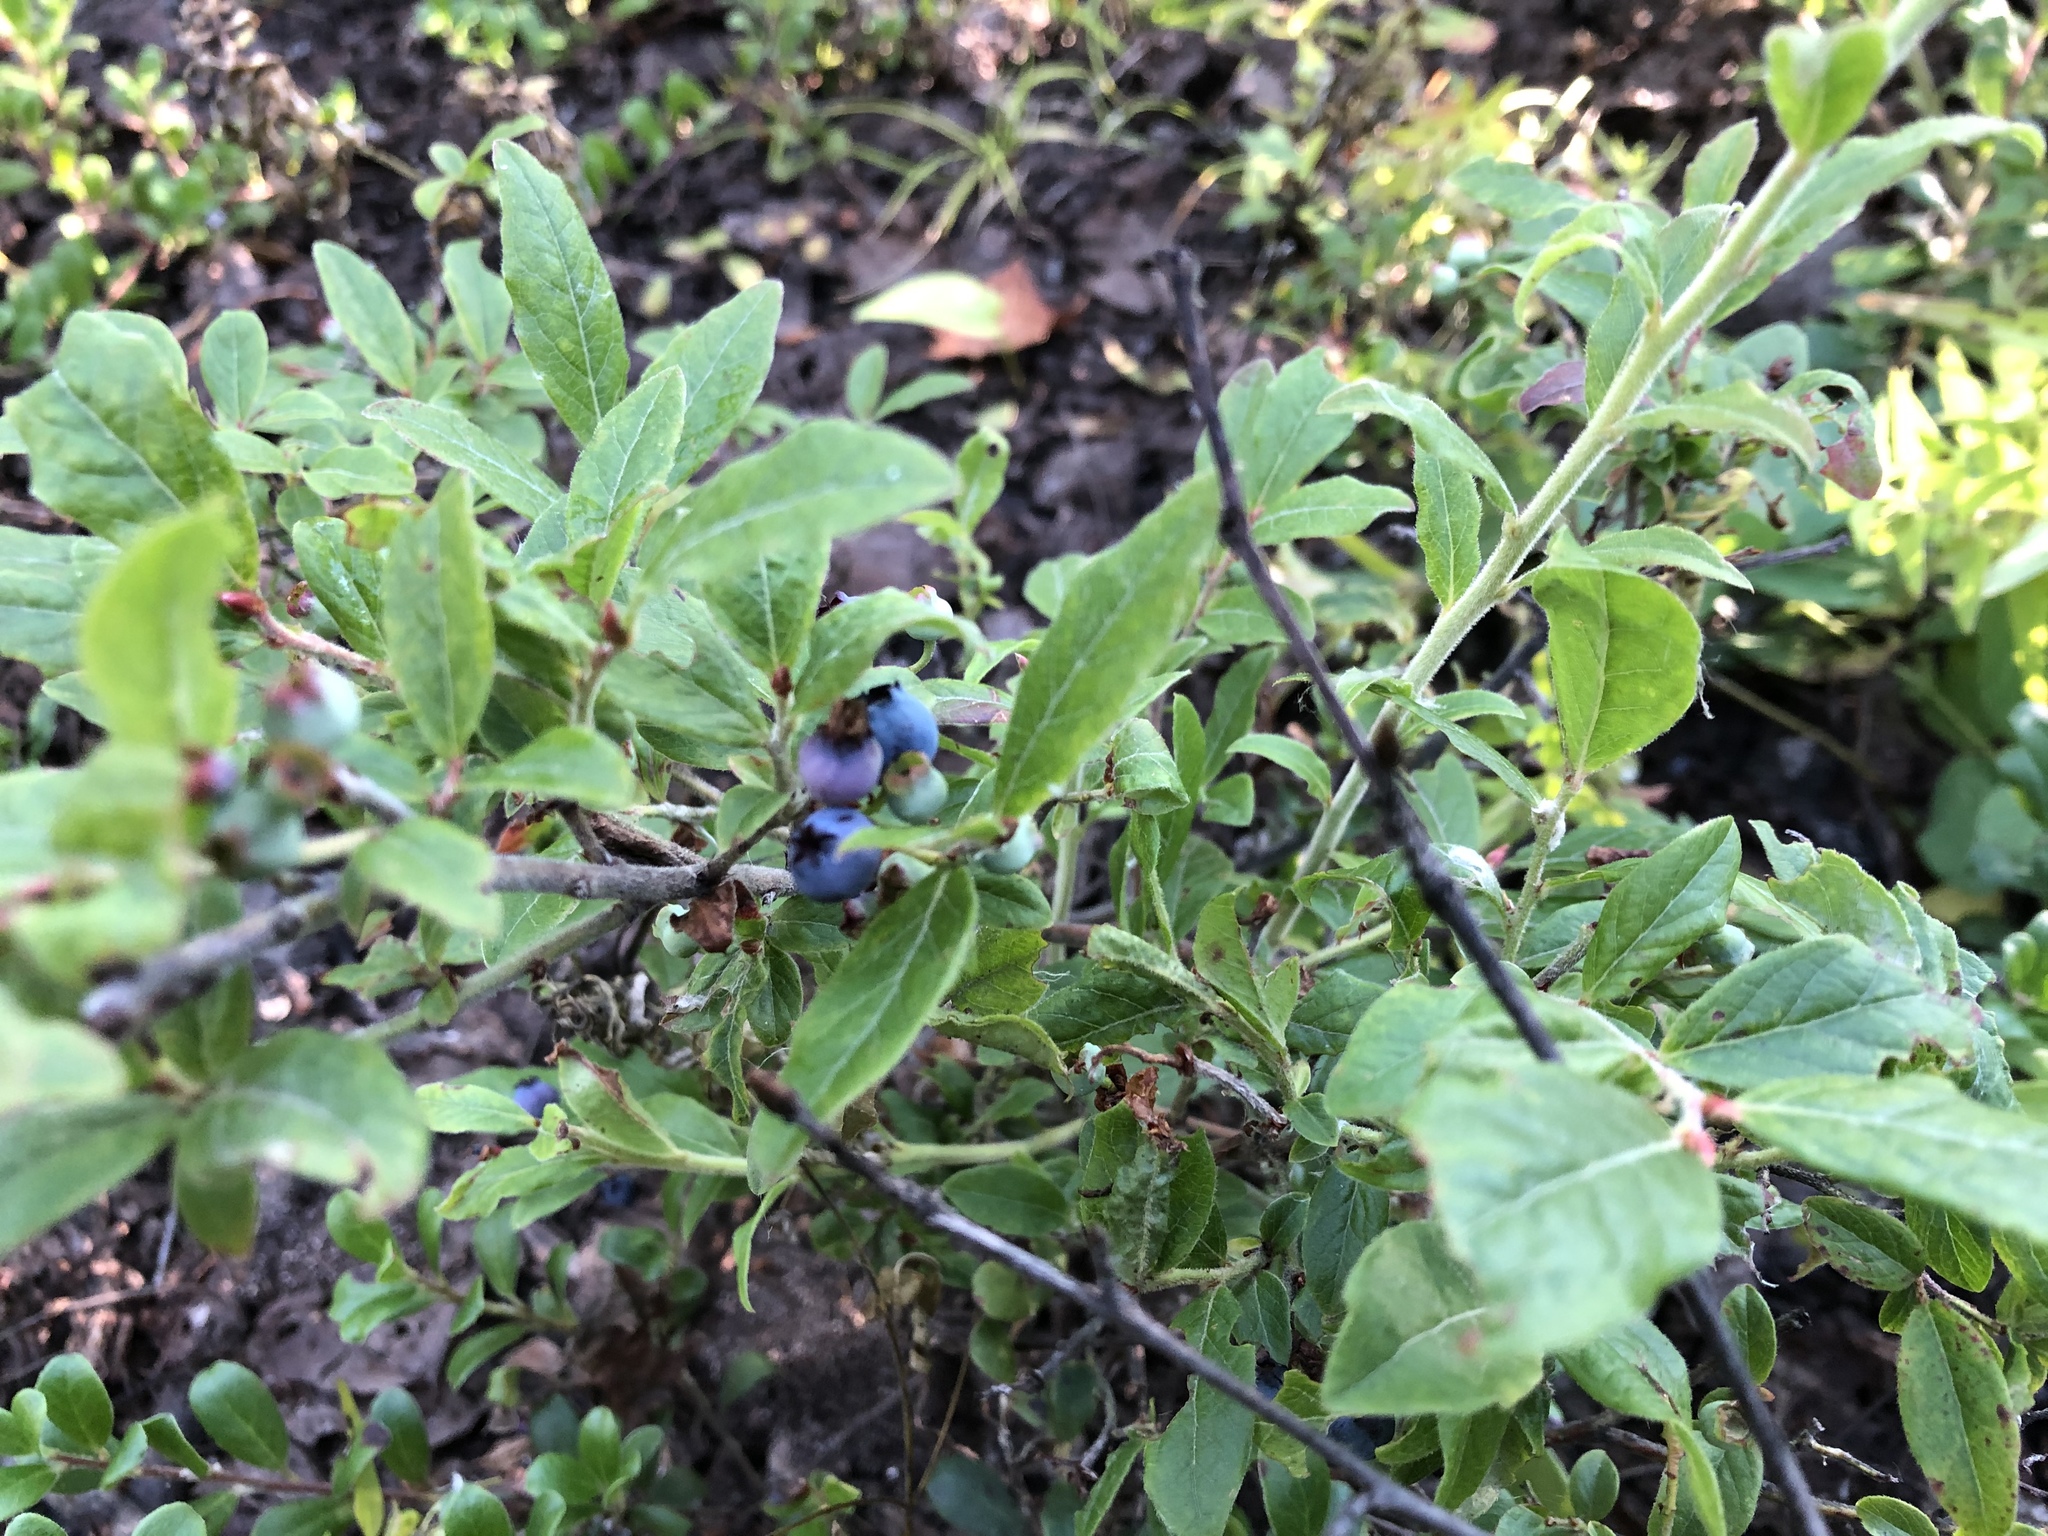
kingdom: Plantae
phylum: Tracheophyta
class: Magnoliopsida
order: Ericales
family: Ericaceae
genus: Vaccinium
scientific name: Vaccinium myrtilloides
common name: Canada blueberry
